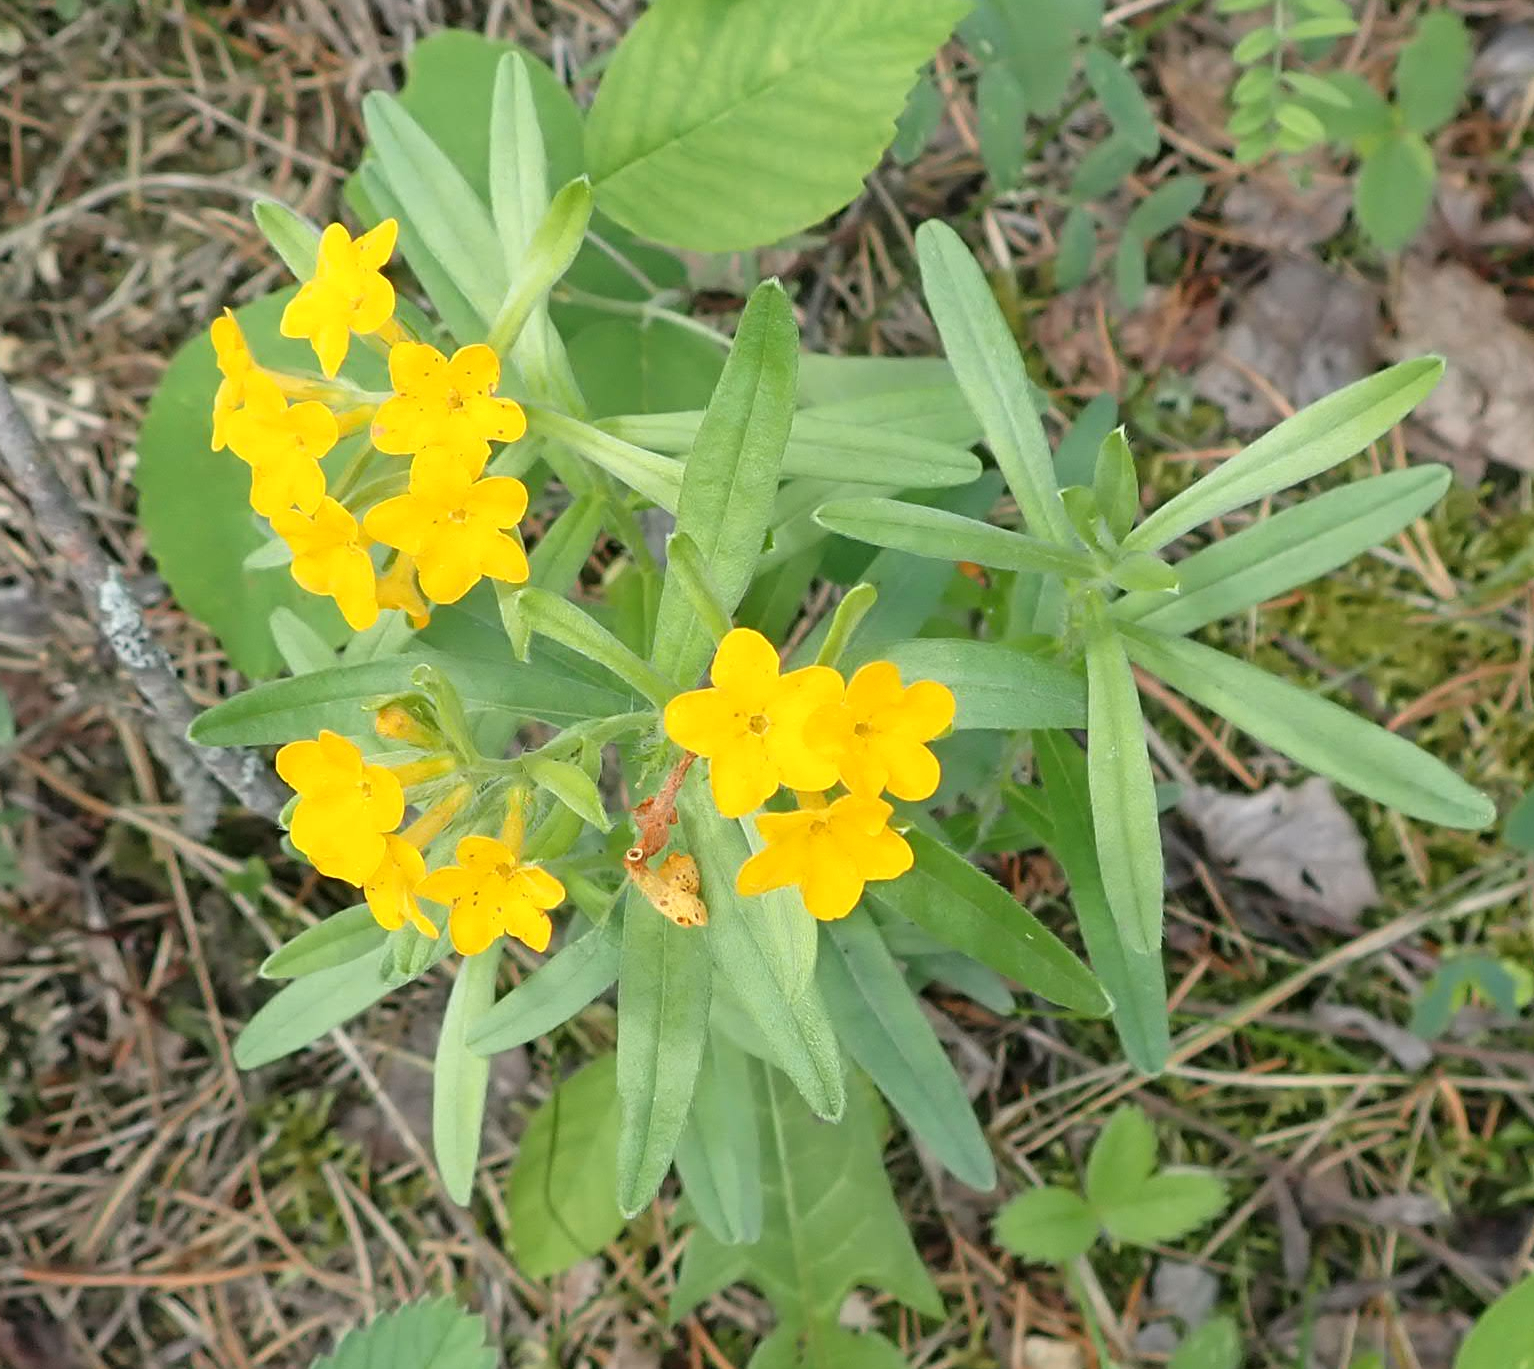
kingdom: Plantae
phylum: Tracheophyta
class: Magnoliopsida
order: Boraginales
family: Boraginaceae
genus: Lithospermum
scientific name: Lithospermum canescens
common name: Hoary puccoon
